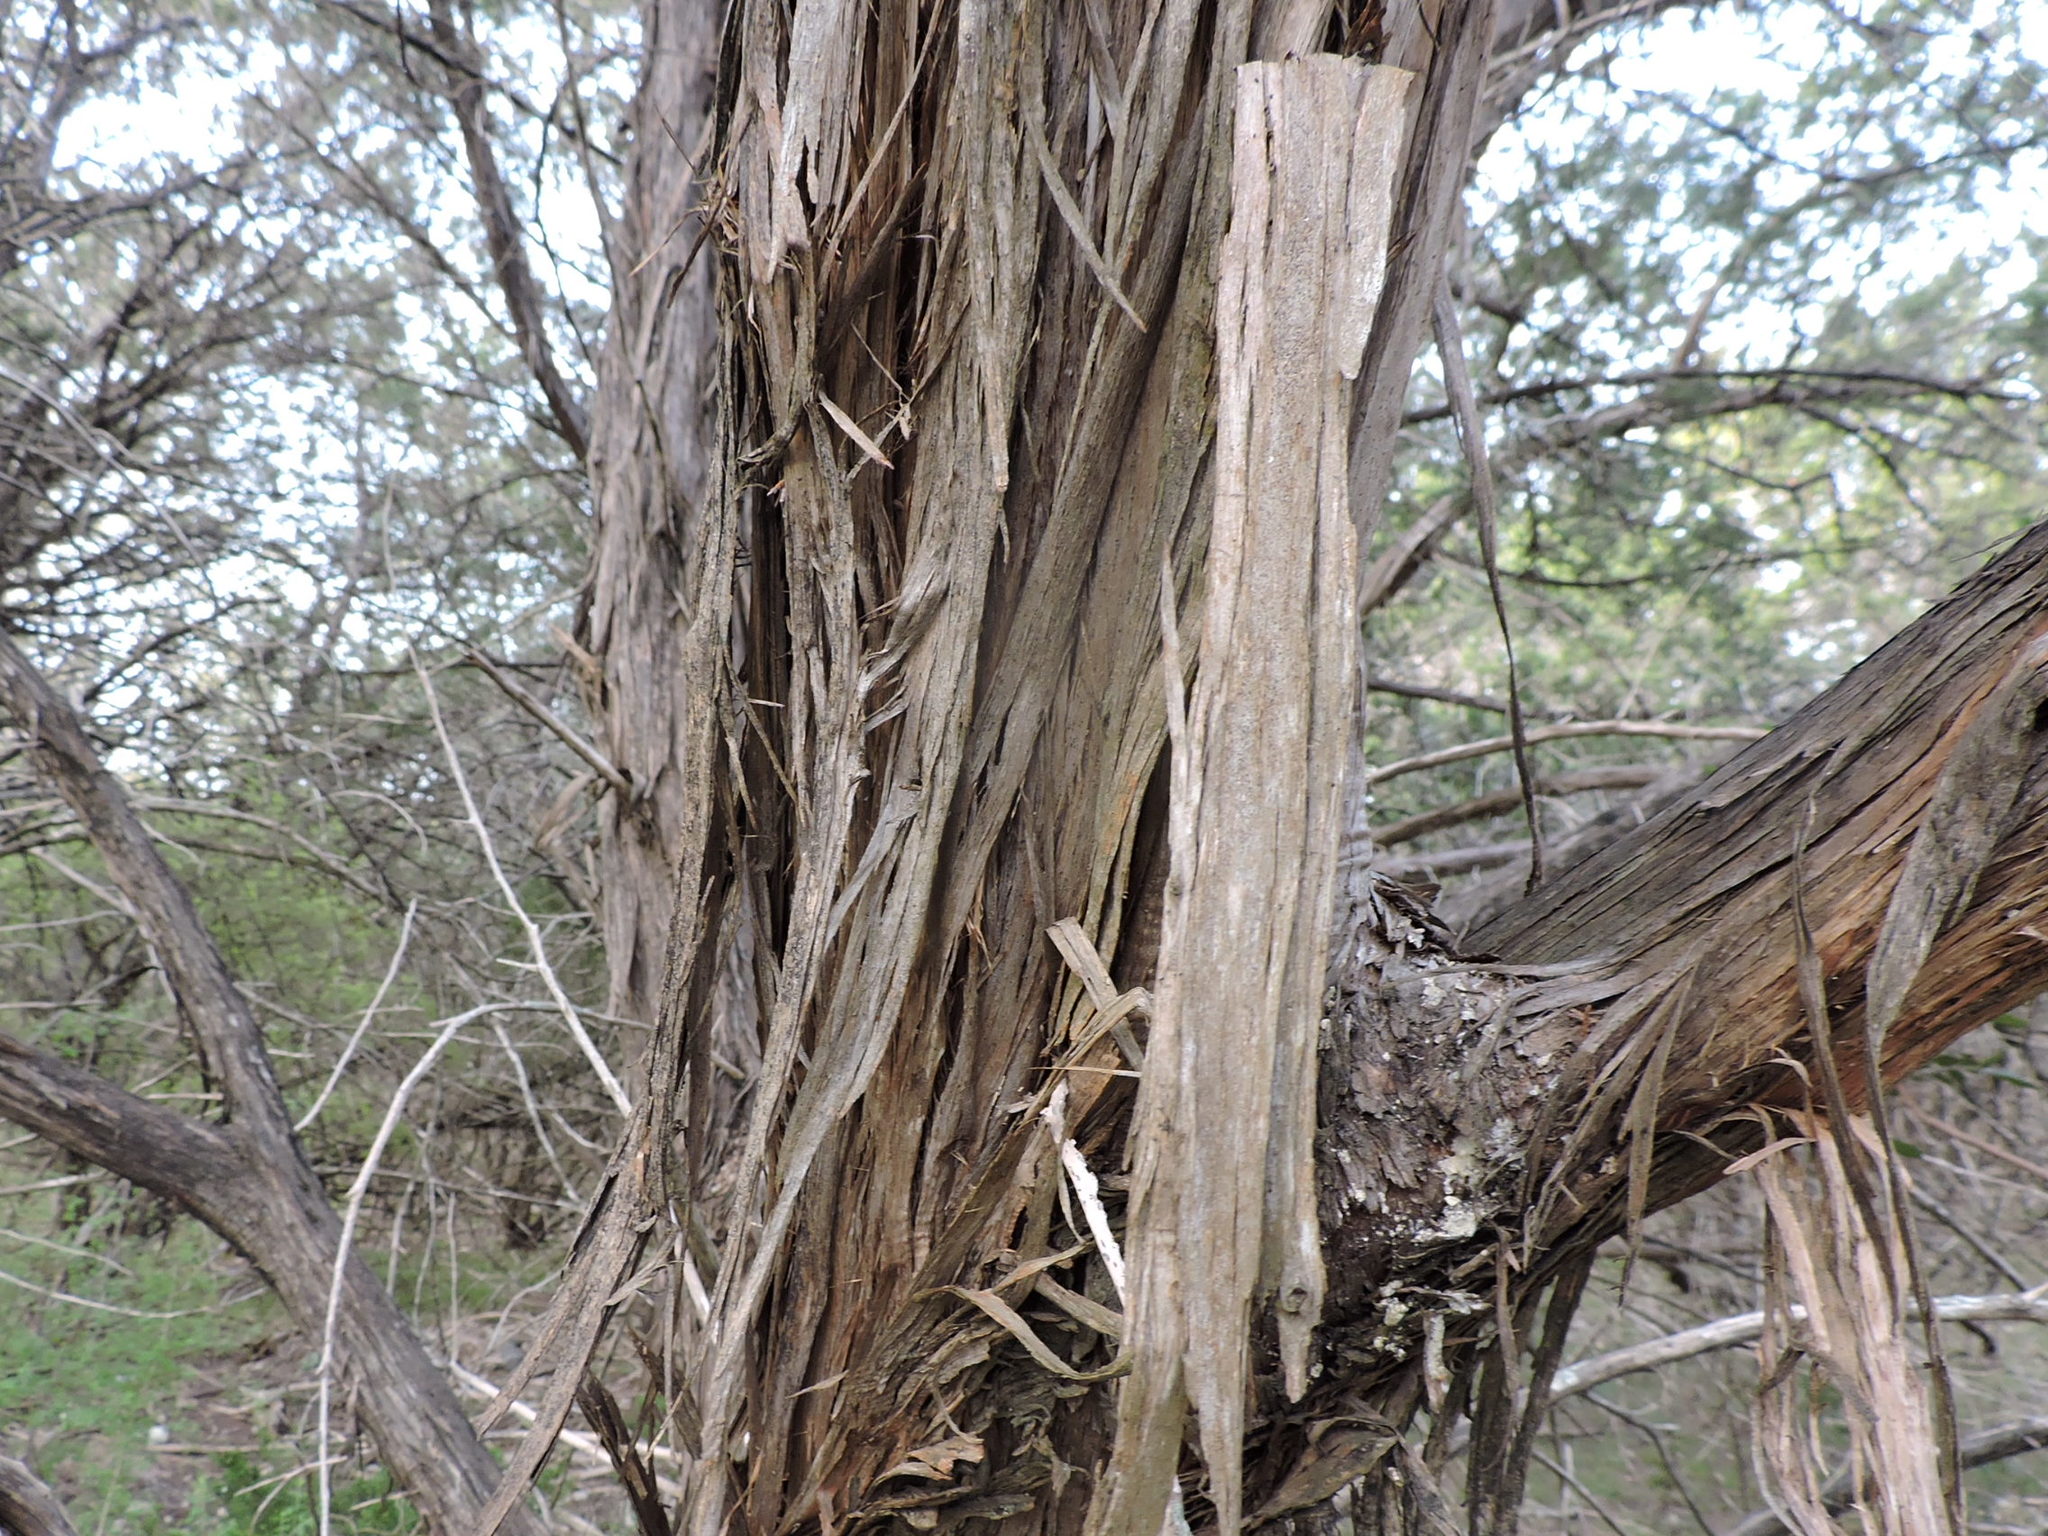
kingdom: Plantae
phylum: Tracheophyta
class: Pinopsida
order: Pinales
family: Cupressaceae
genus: Juniperus
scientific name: Juniperus ashei
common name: Mexican juniper
